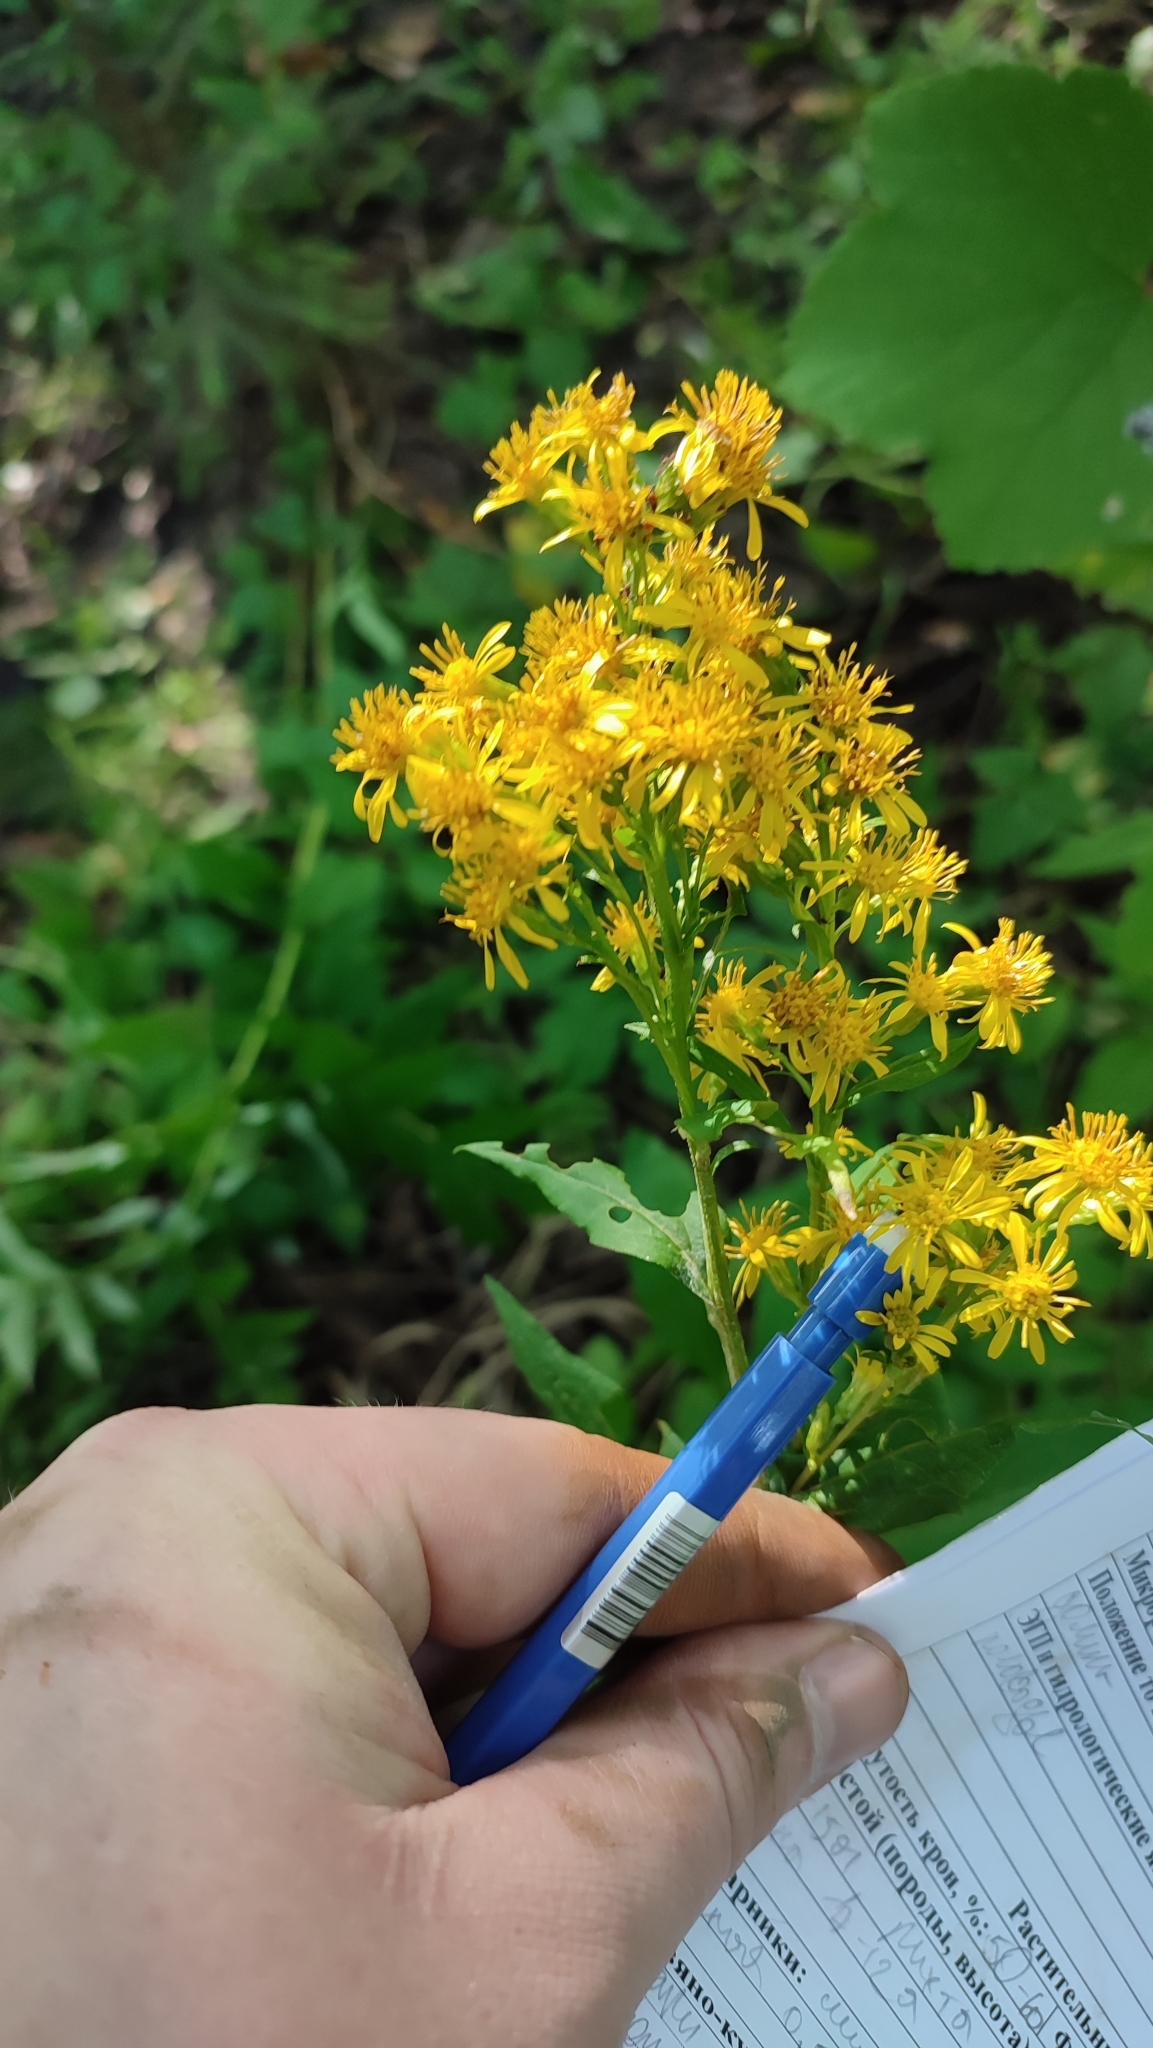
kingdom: Plantae
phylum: Tracheophyta
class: Magnoliopsida
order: Asterales
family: Asteraceae
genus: Solidago
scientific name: Solidago virgaurea
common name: Goldenrod
